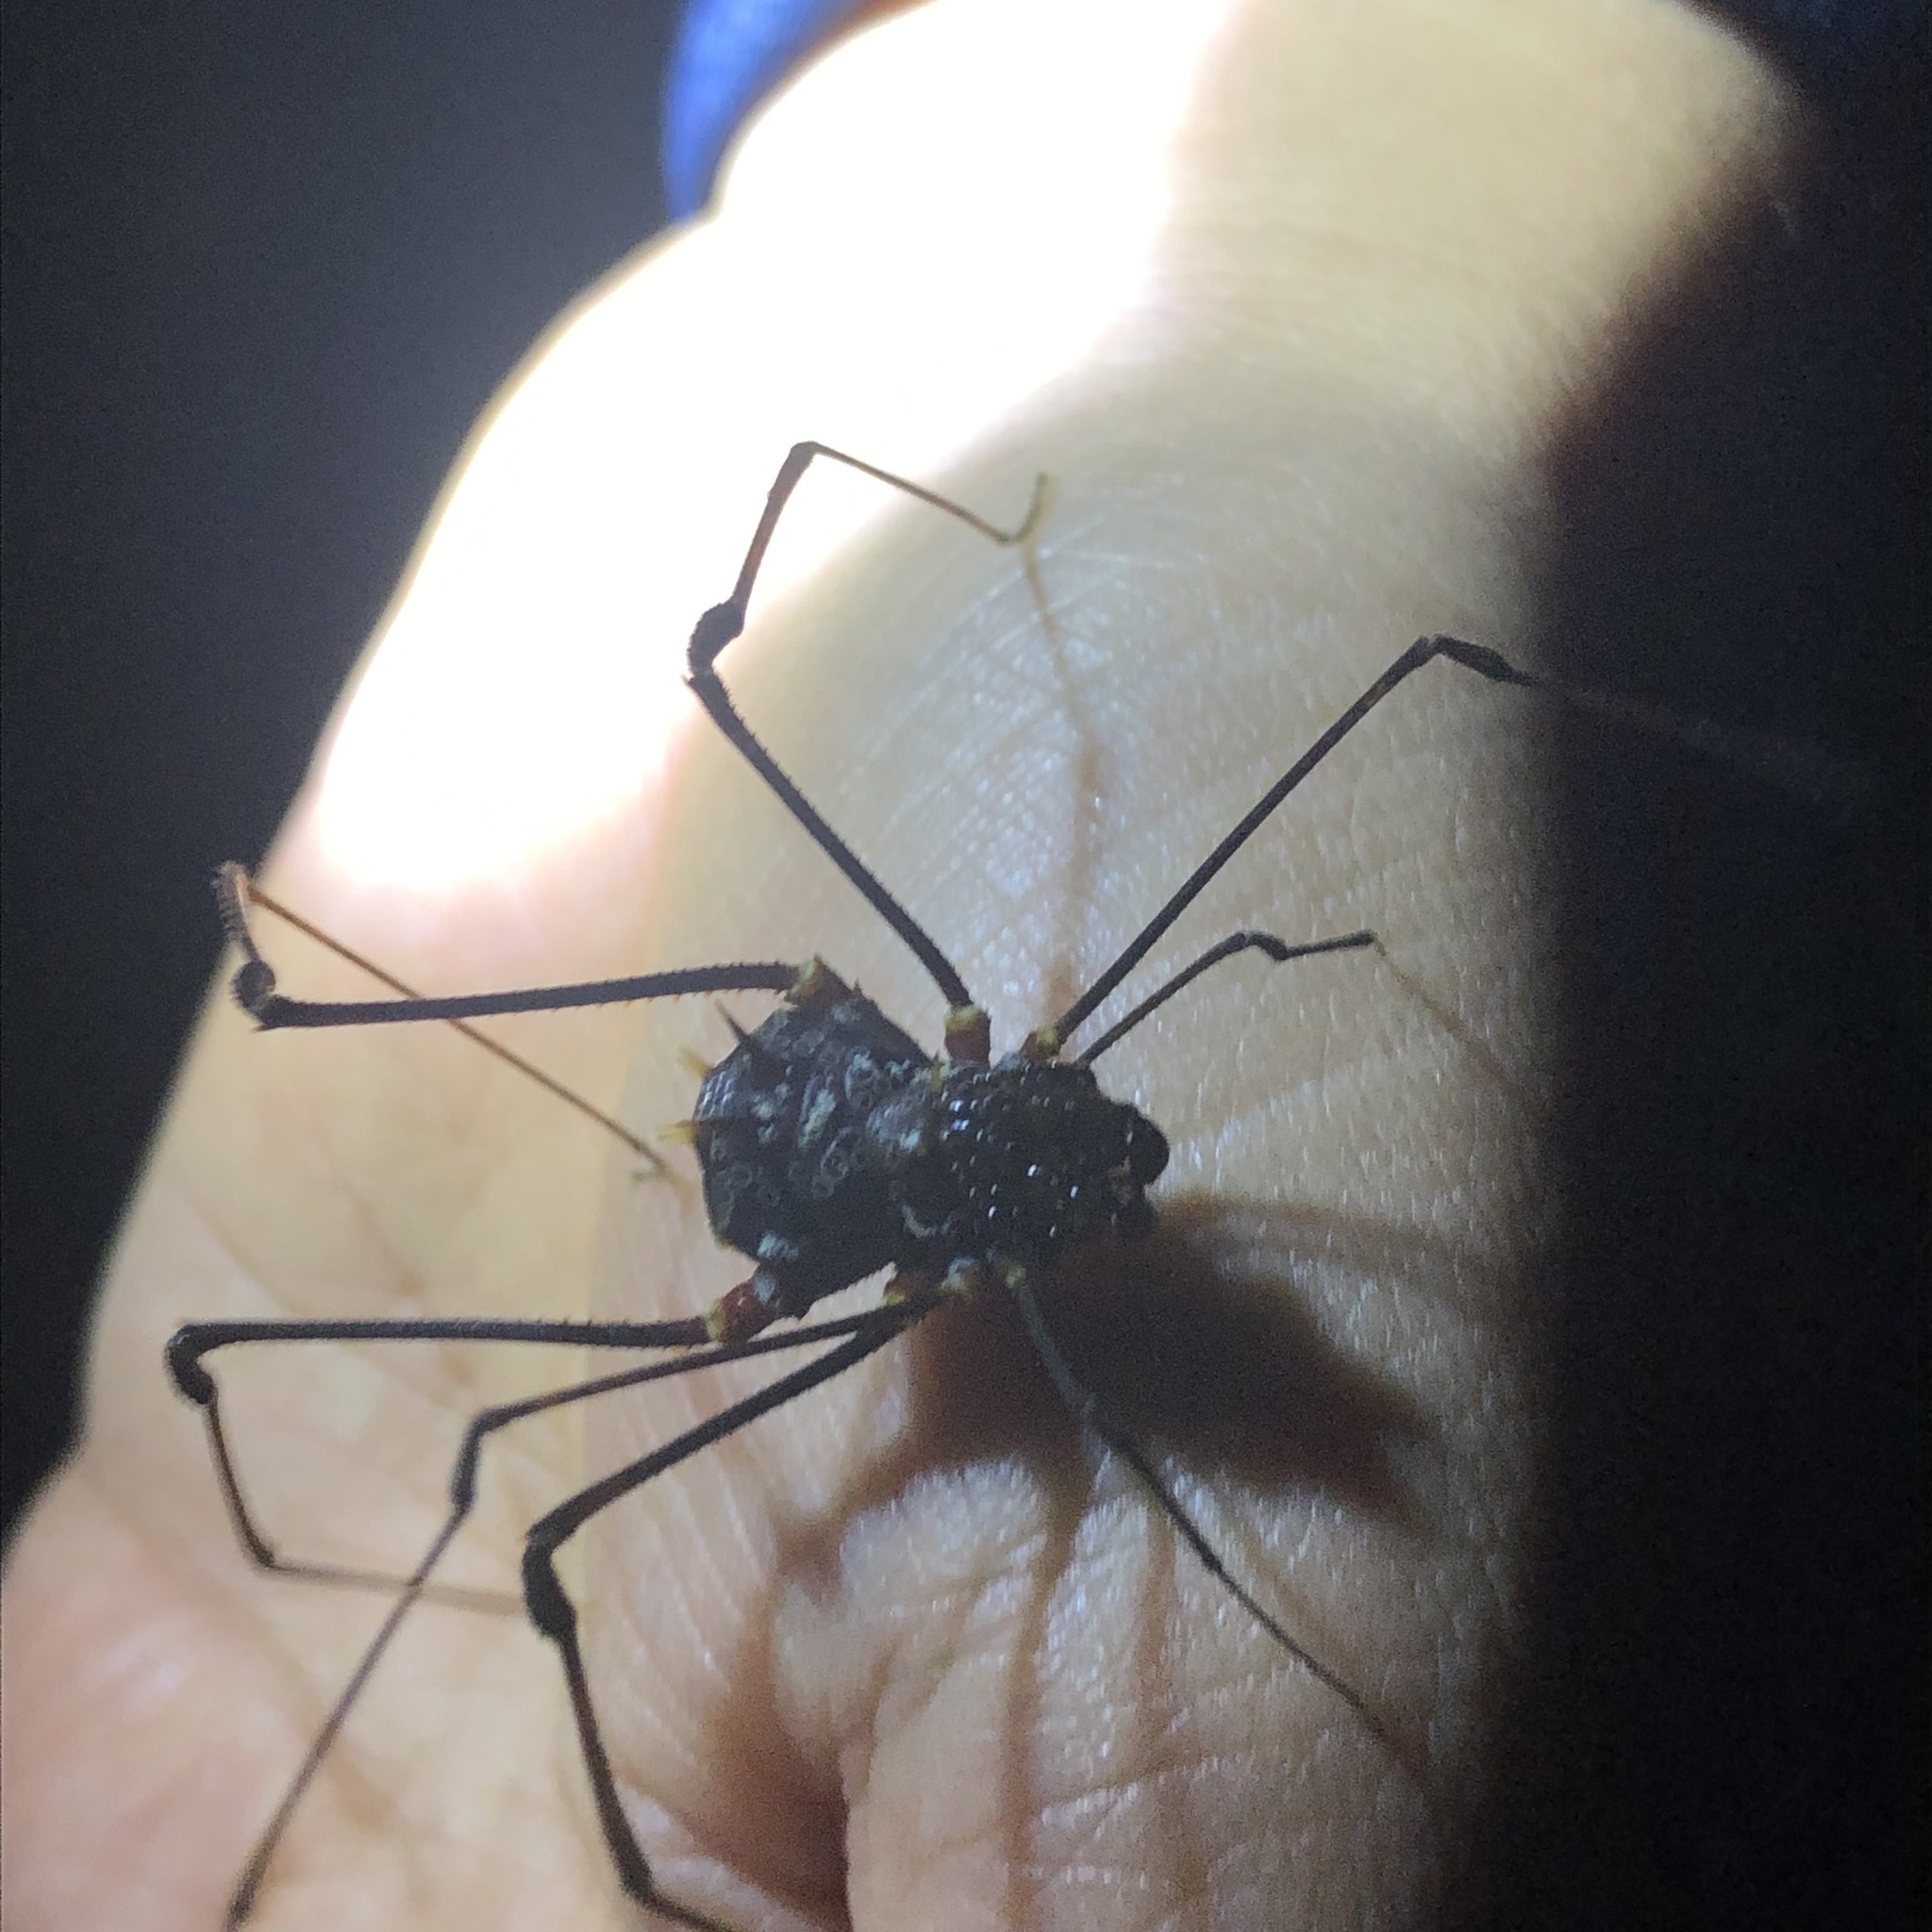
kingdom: Animalia
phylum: Arthropoda
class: Arachnida
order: Opiliones
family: Cranaidae
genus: Phareicranaus
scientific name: Phareicranaus gracilis
